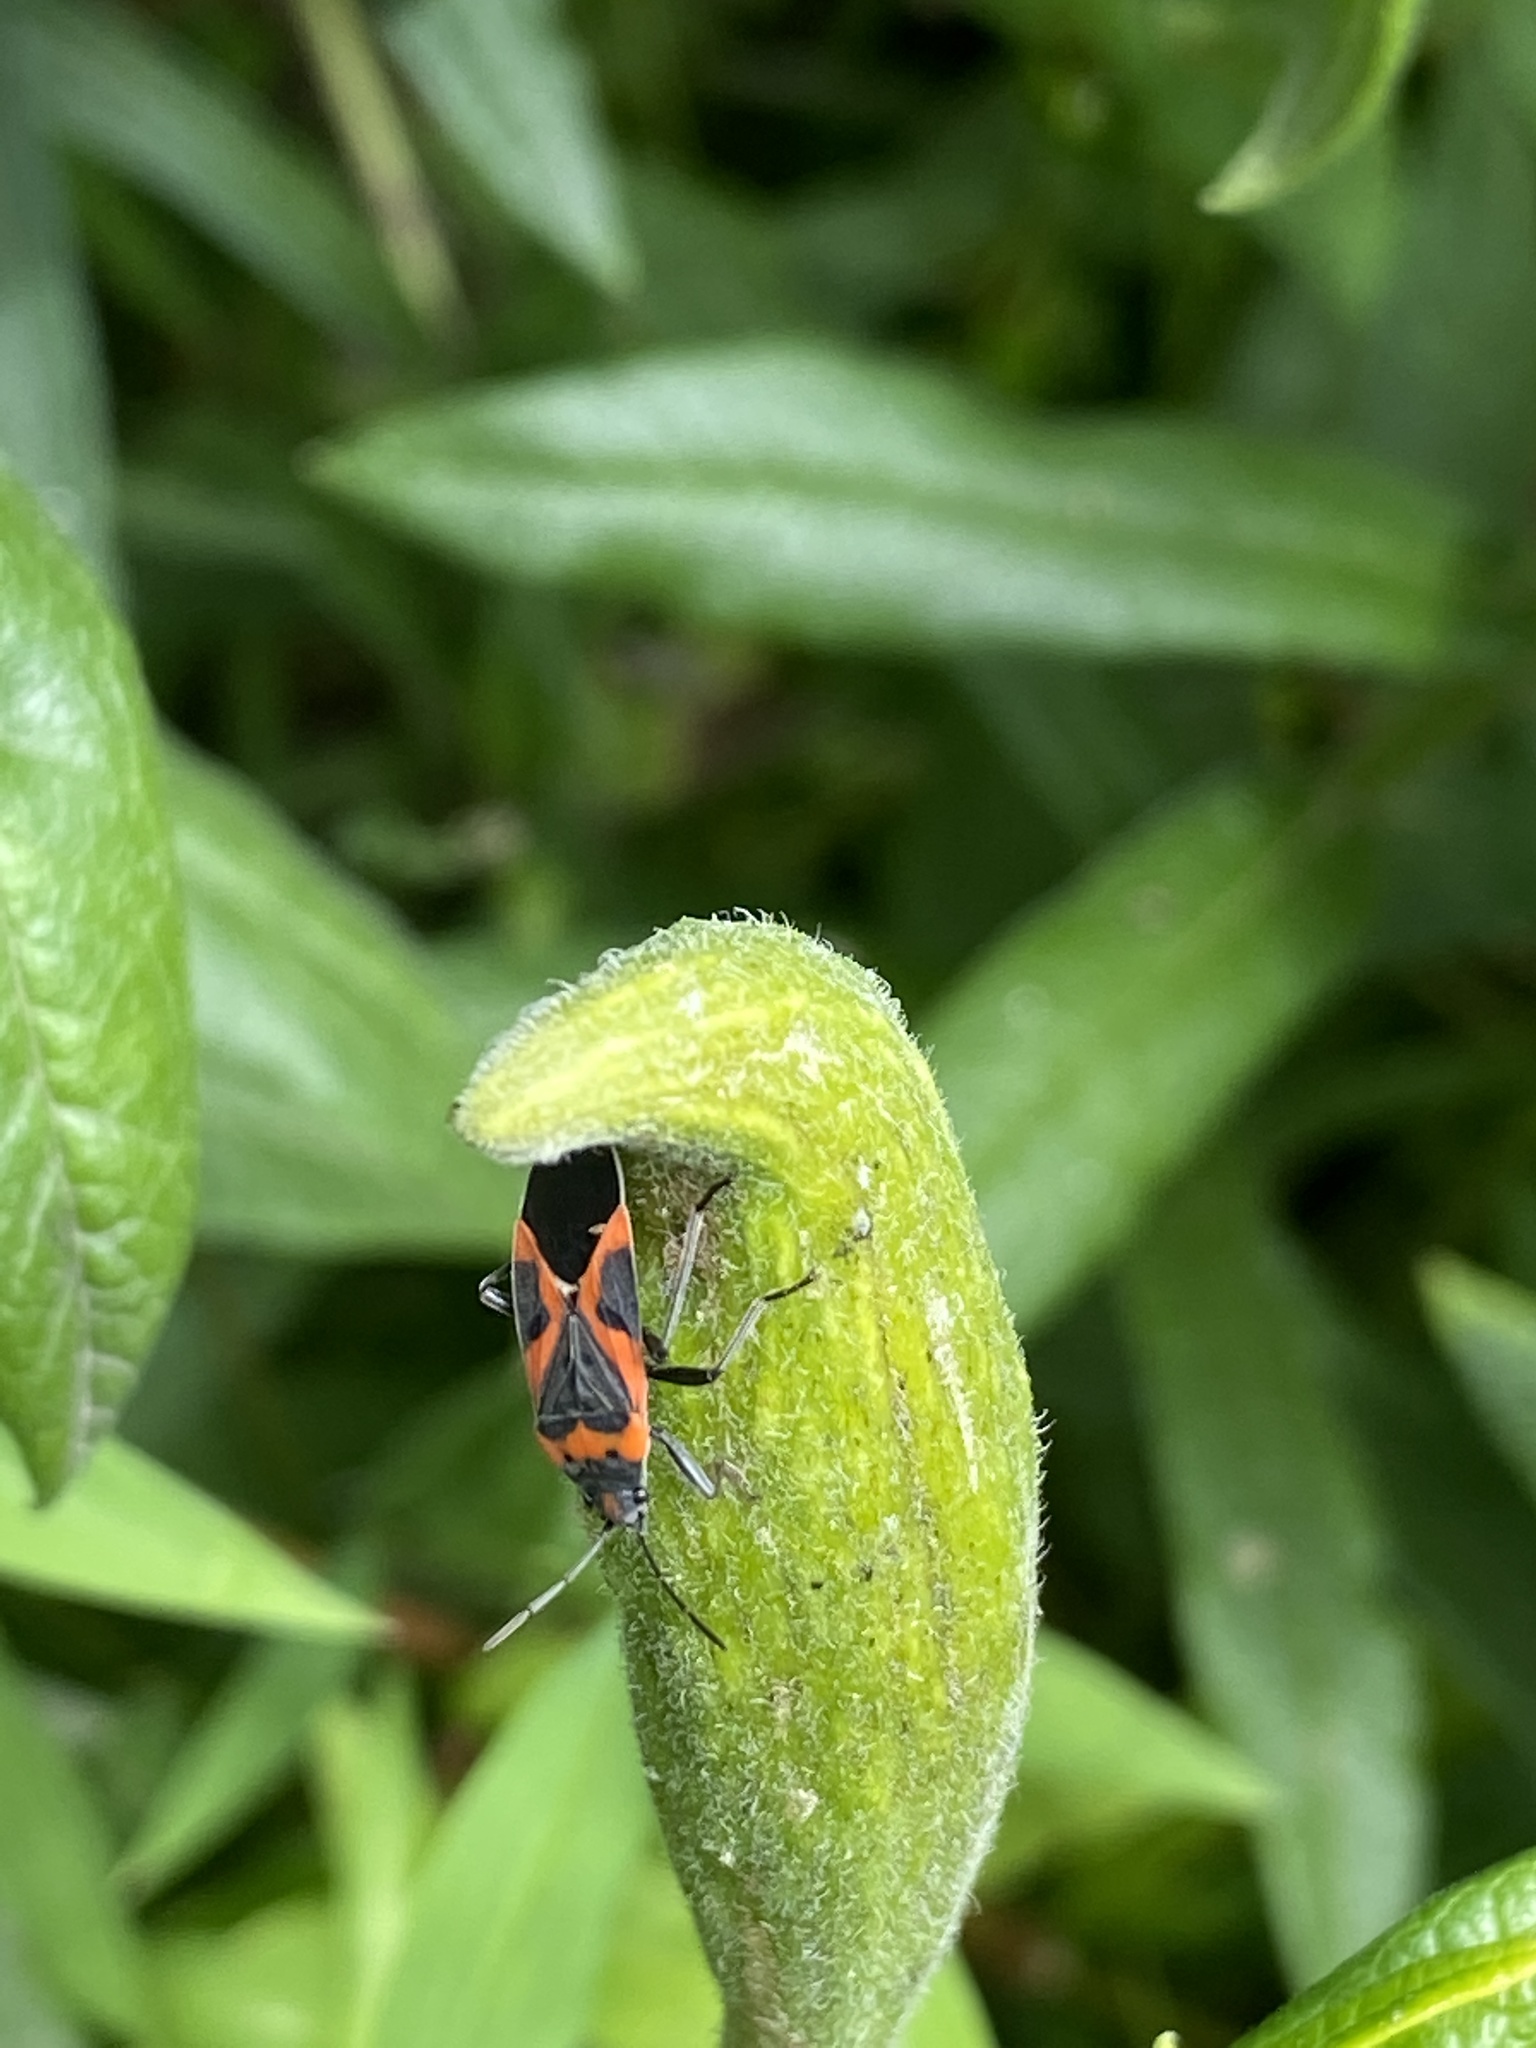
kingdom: Animalia
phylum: Arthropoda
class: Insecta
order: Hemiptera
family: Lygaeidae
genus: Lygaeus
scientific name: Lygaeus kalmii
